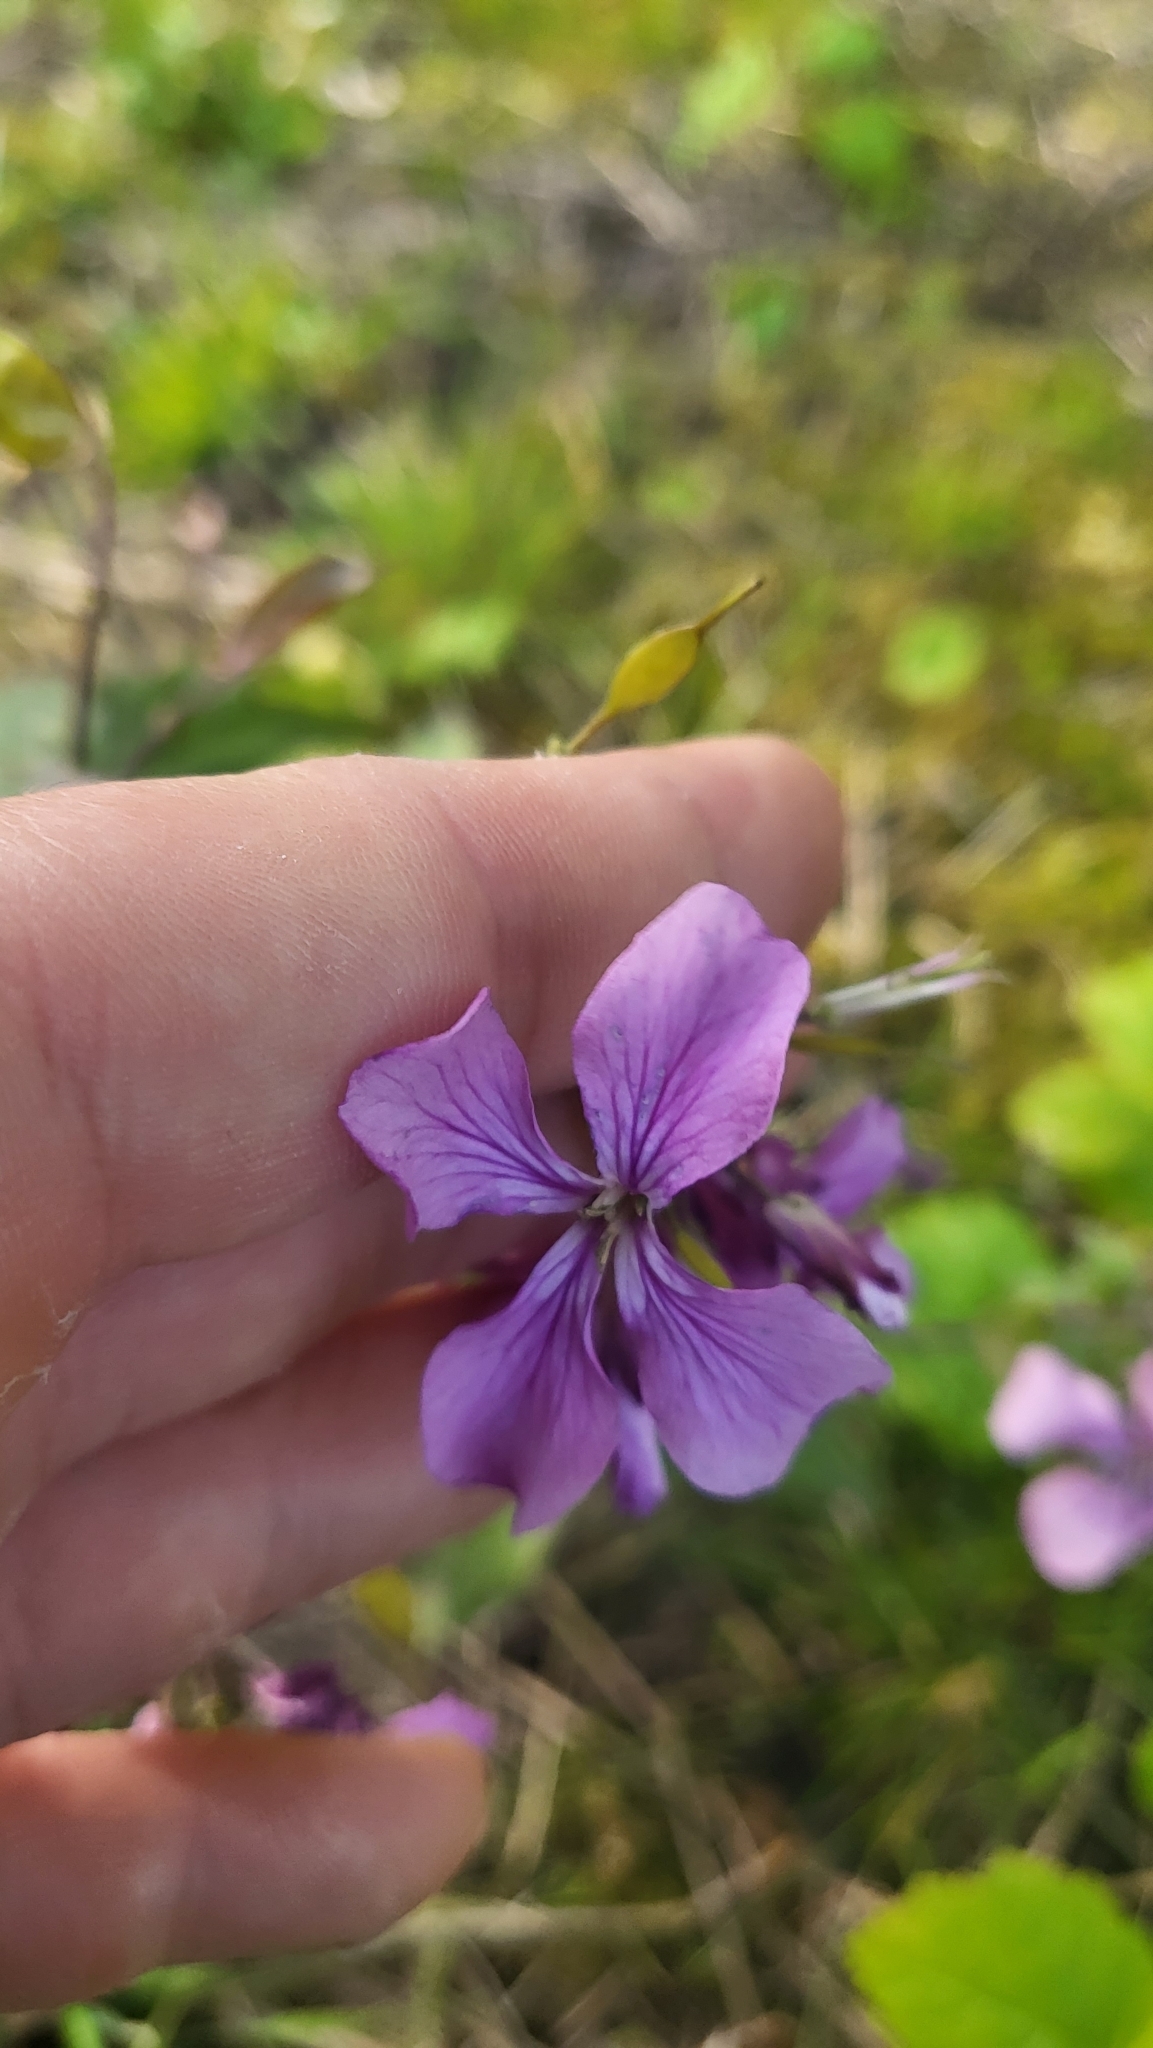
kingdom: Plantae
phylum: Tracheophyta
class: Magnoliopsida
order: Brassicales
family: Brassicaceae
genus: Lunaria
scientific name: Lunaria annua
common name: Honesty
